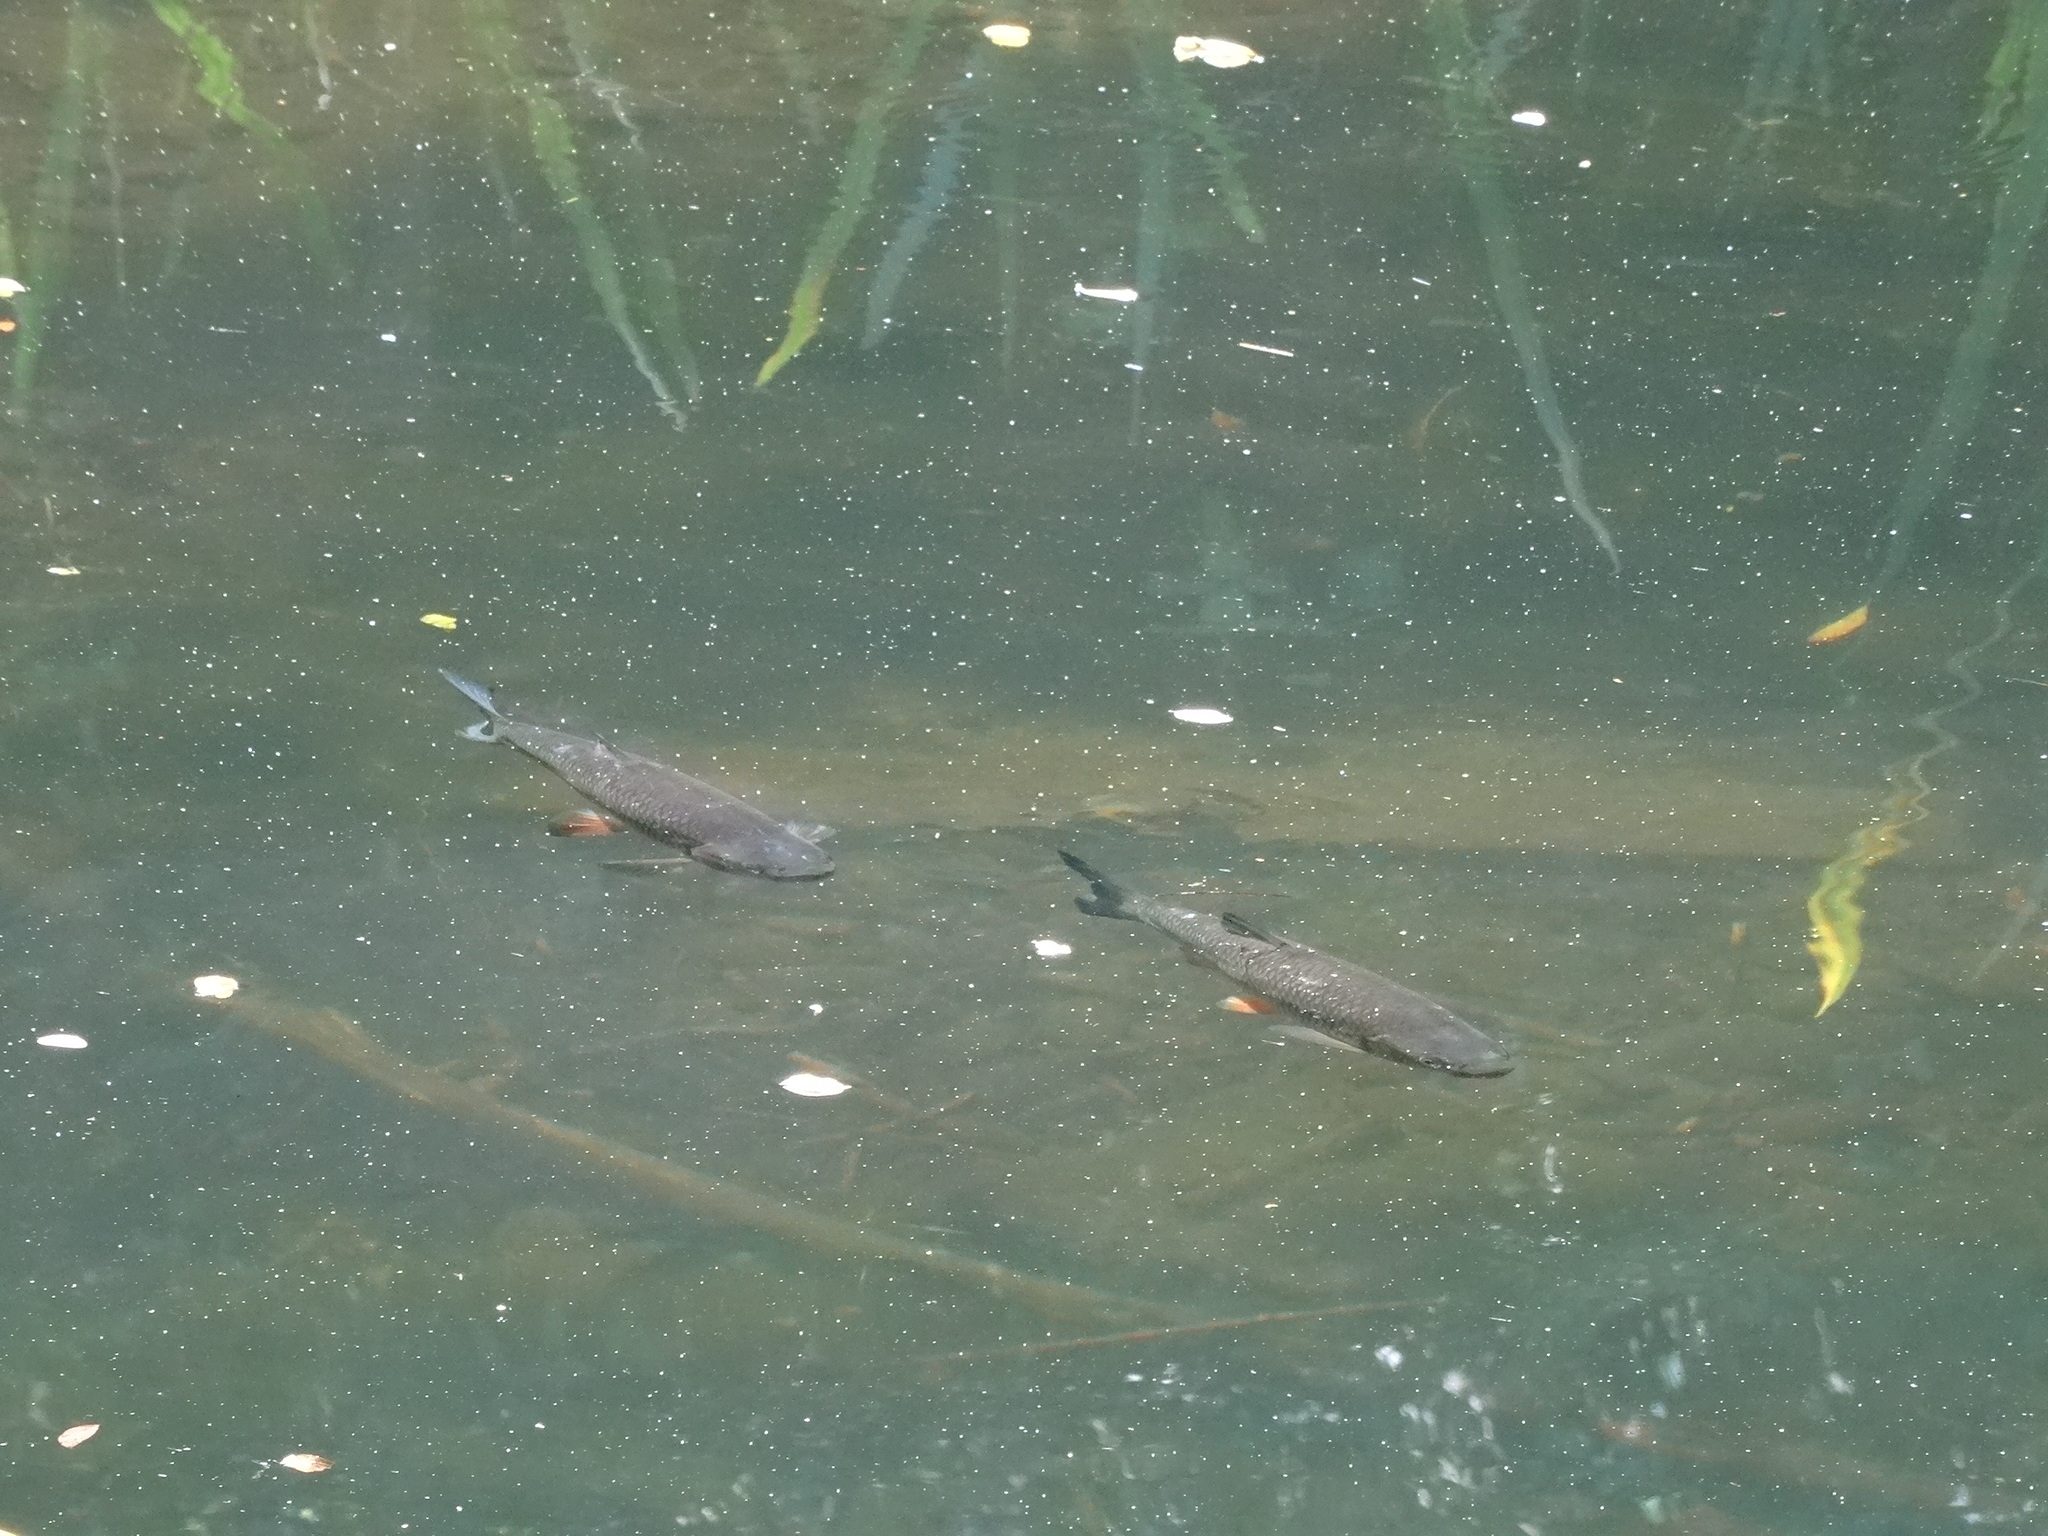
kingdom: Animalia
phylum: Chordata
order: Cypriniformes
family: Cyprinidae
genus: Squalius
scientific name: Squalius cephalus
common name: Chub
